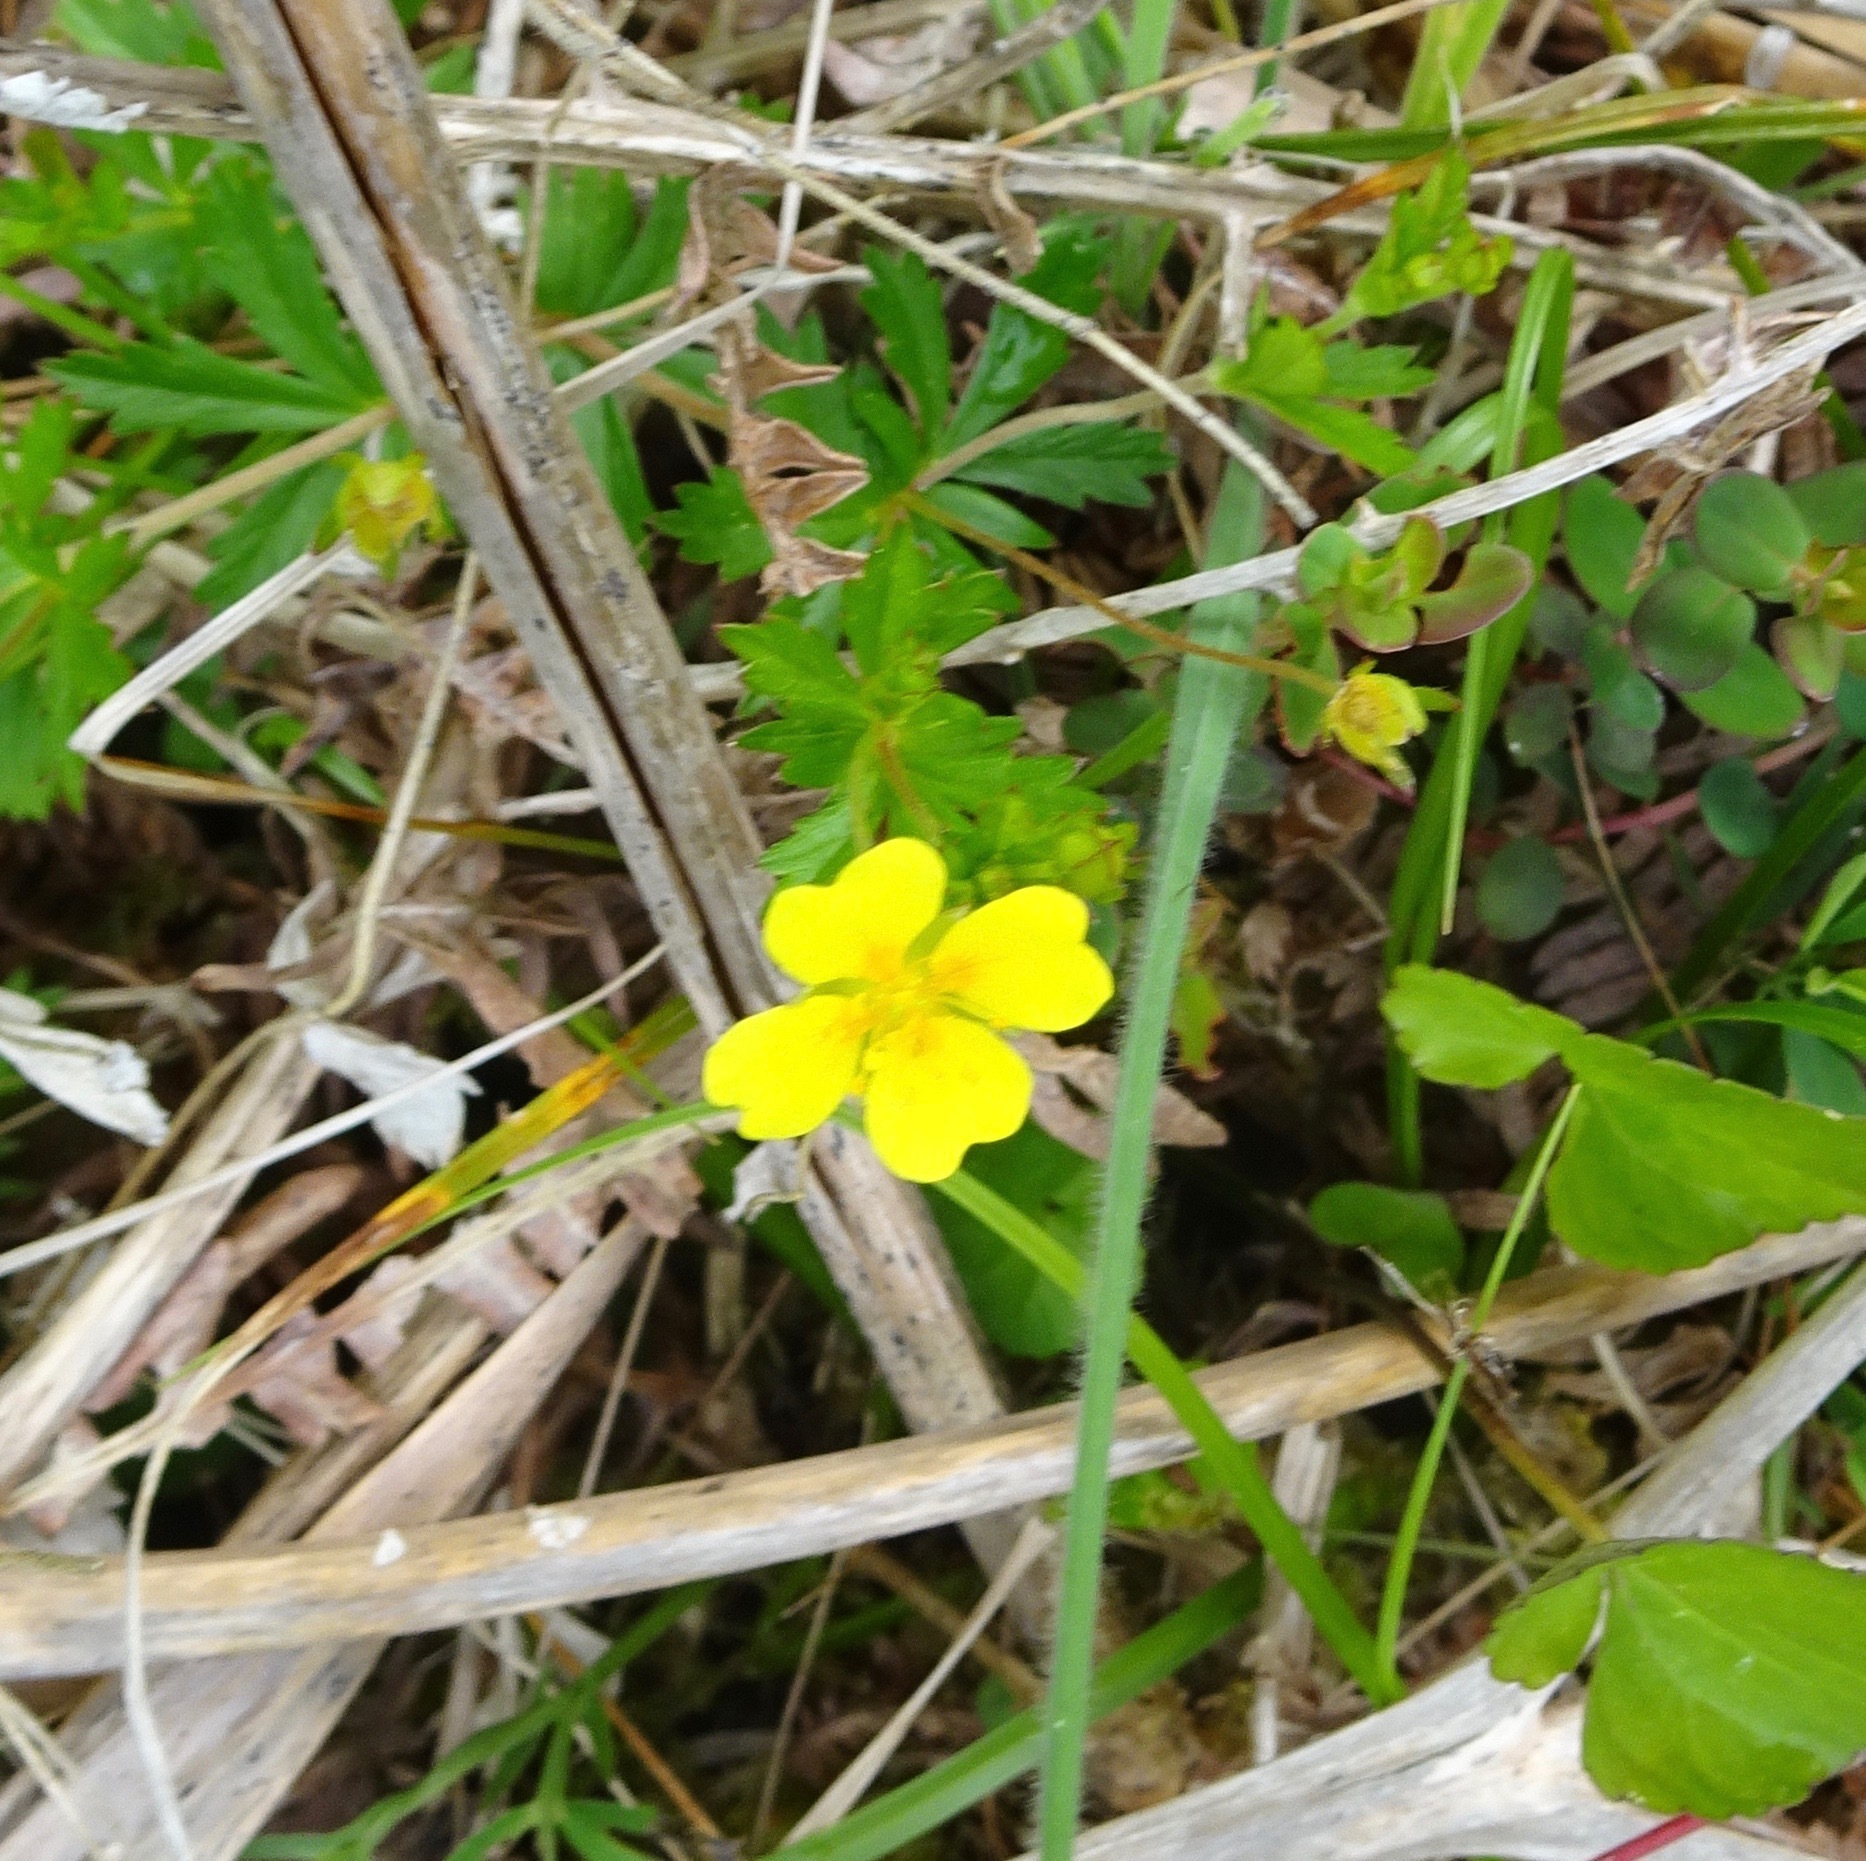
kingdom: Plantae
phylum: Tracheophyta
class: Magnoliopsida
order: Rosales
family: Rosaceae
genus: Potentilla
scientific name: Potentilla erecta
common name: Tormentil
